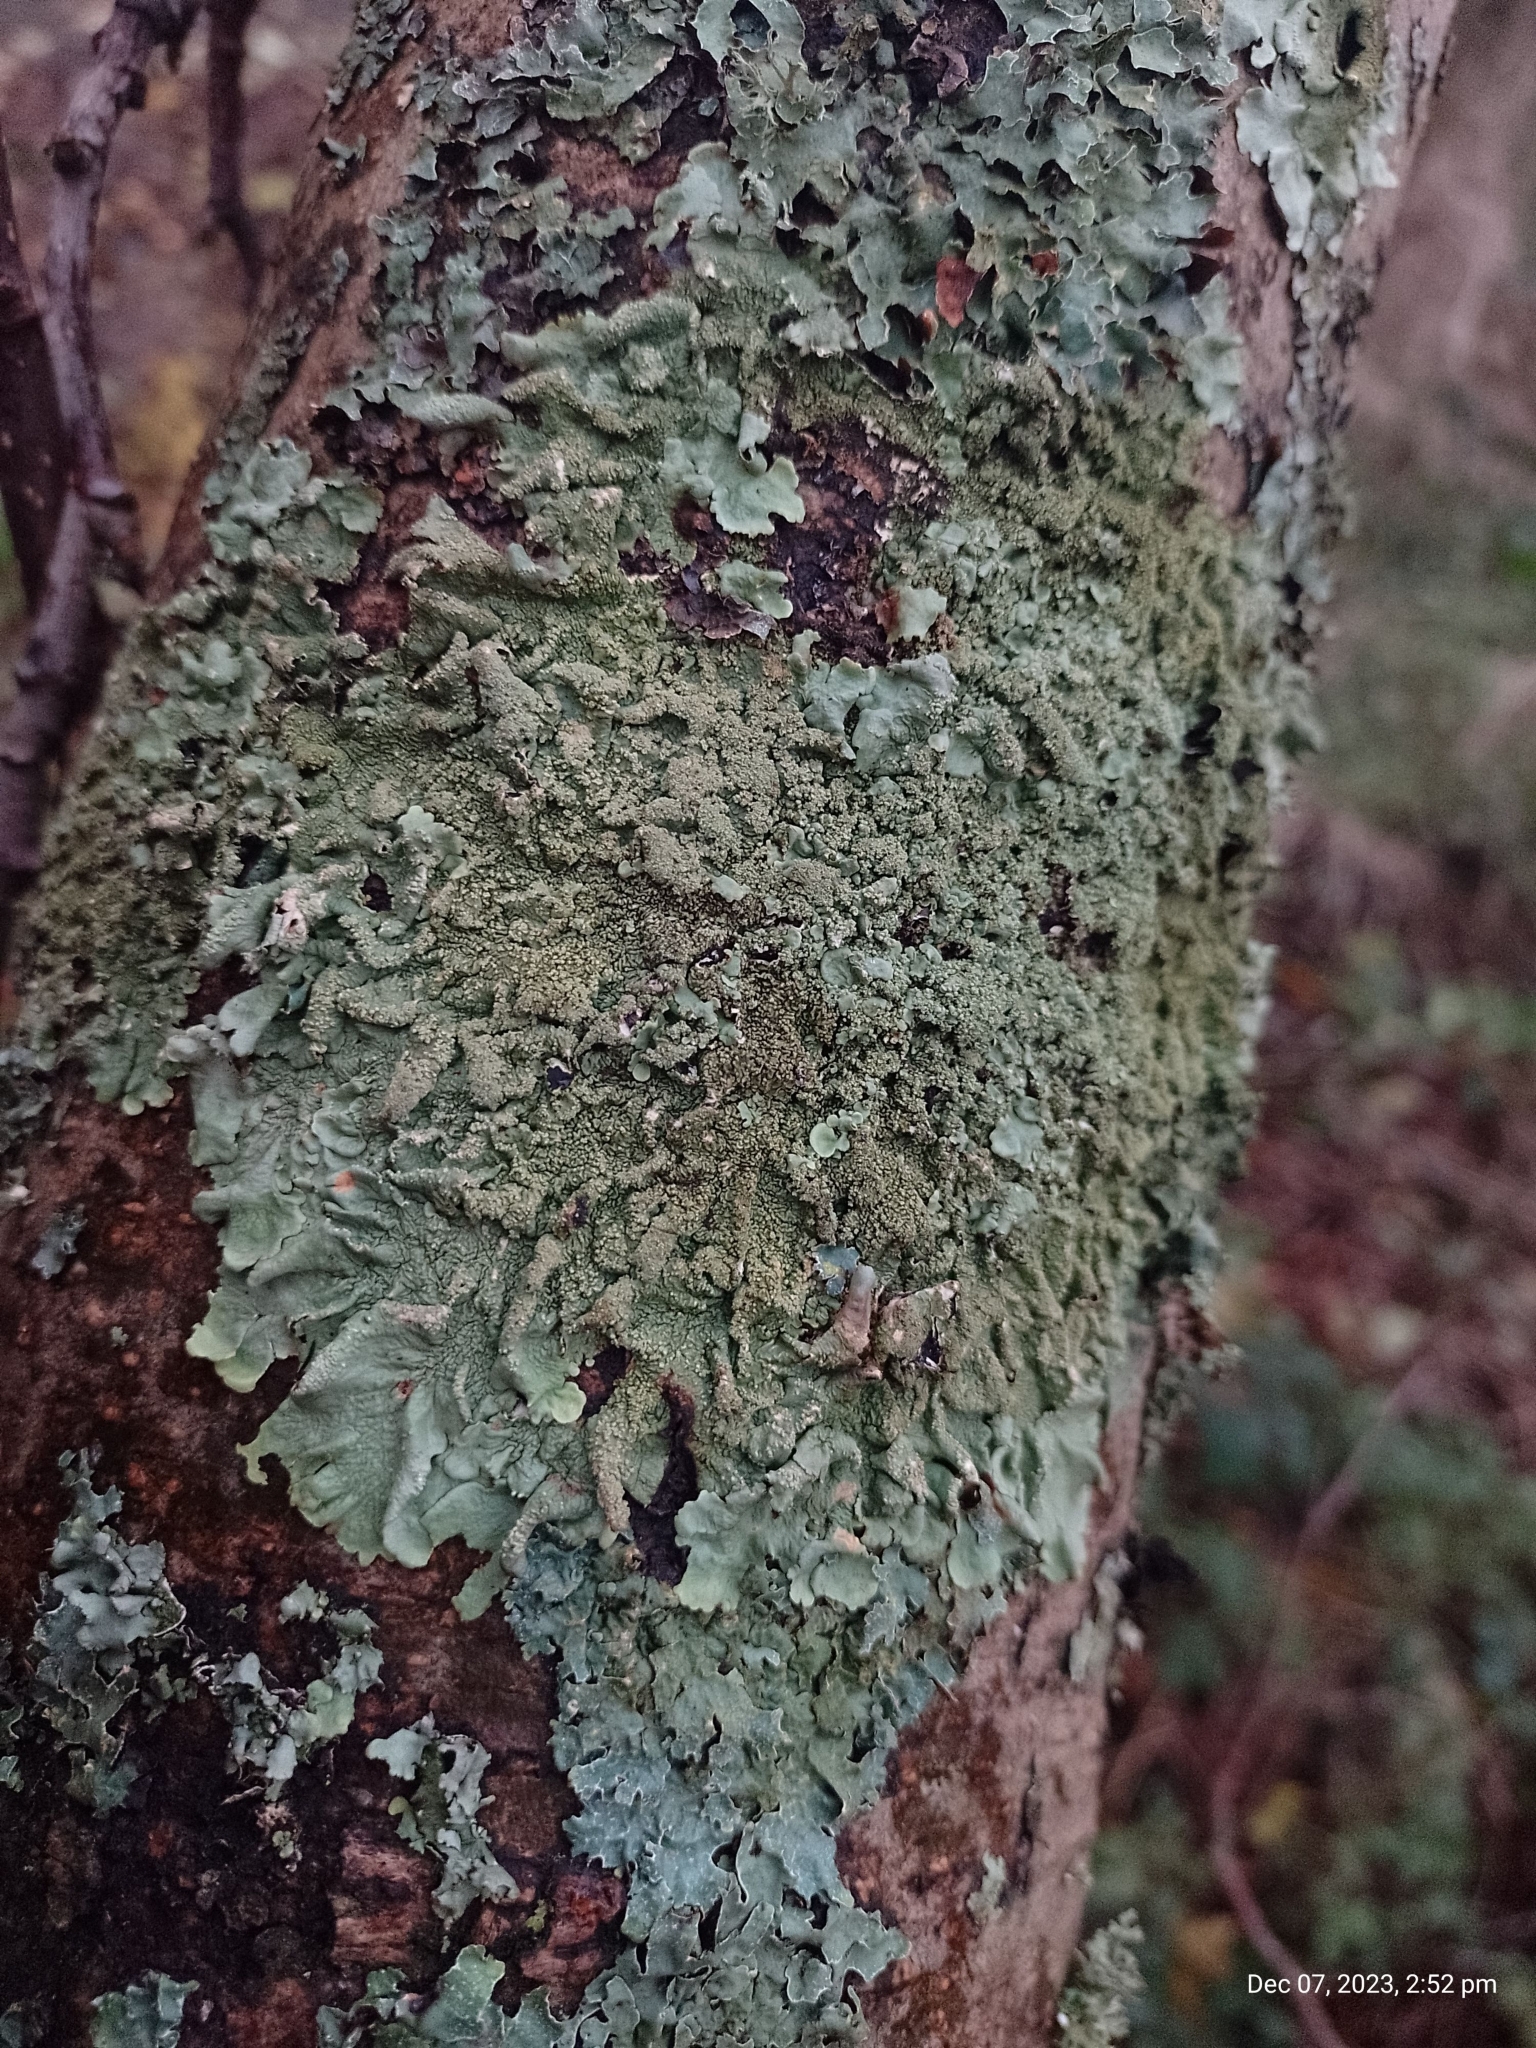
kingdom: Fungi
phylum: Ascomycota
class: Lecanoromycetes
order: Lecanorales
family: Parmeliaceae
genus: Flavoparmelia
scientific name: Flavoparmelia caperata
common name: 40-mile per hour lichen
